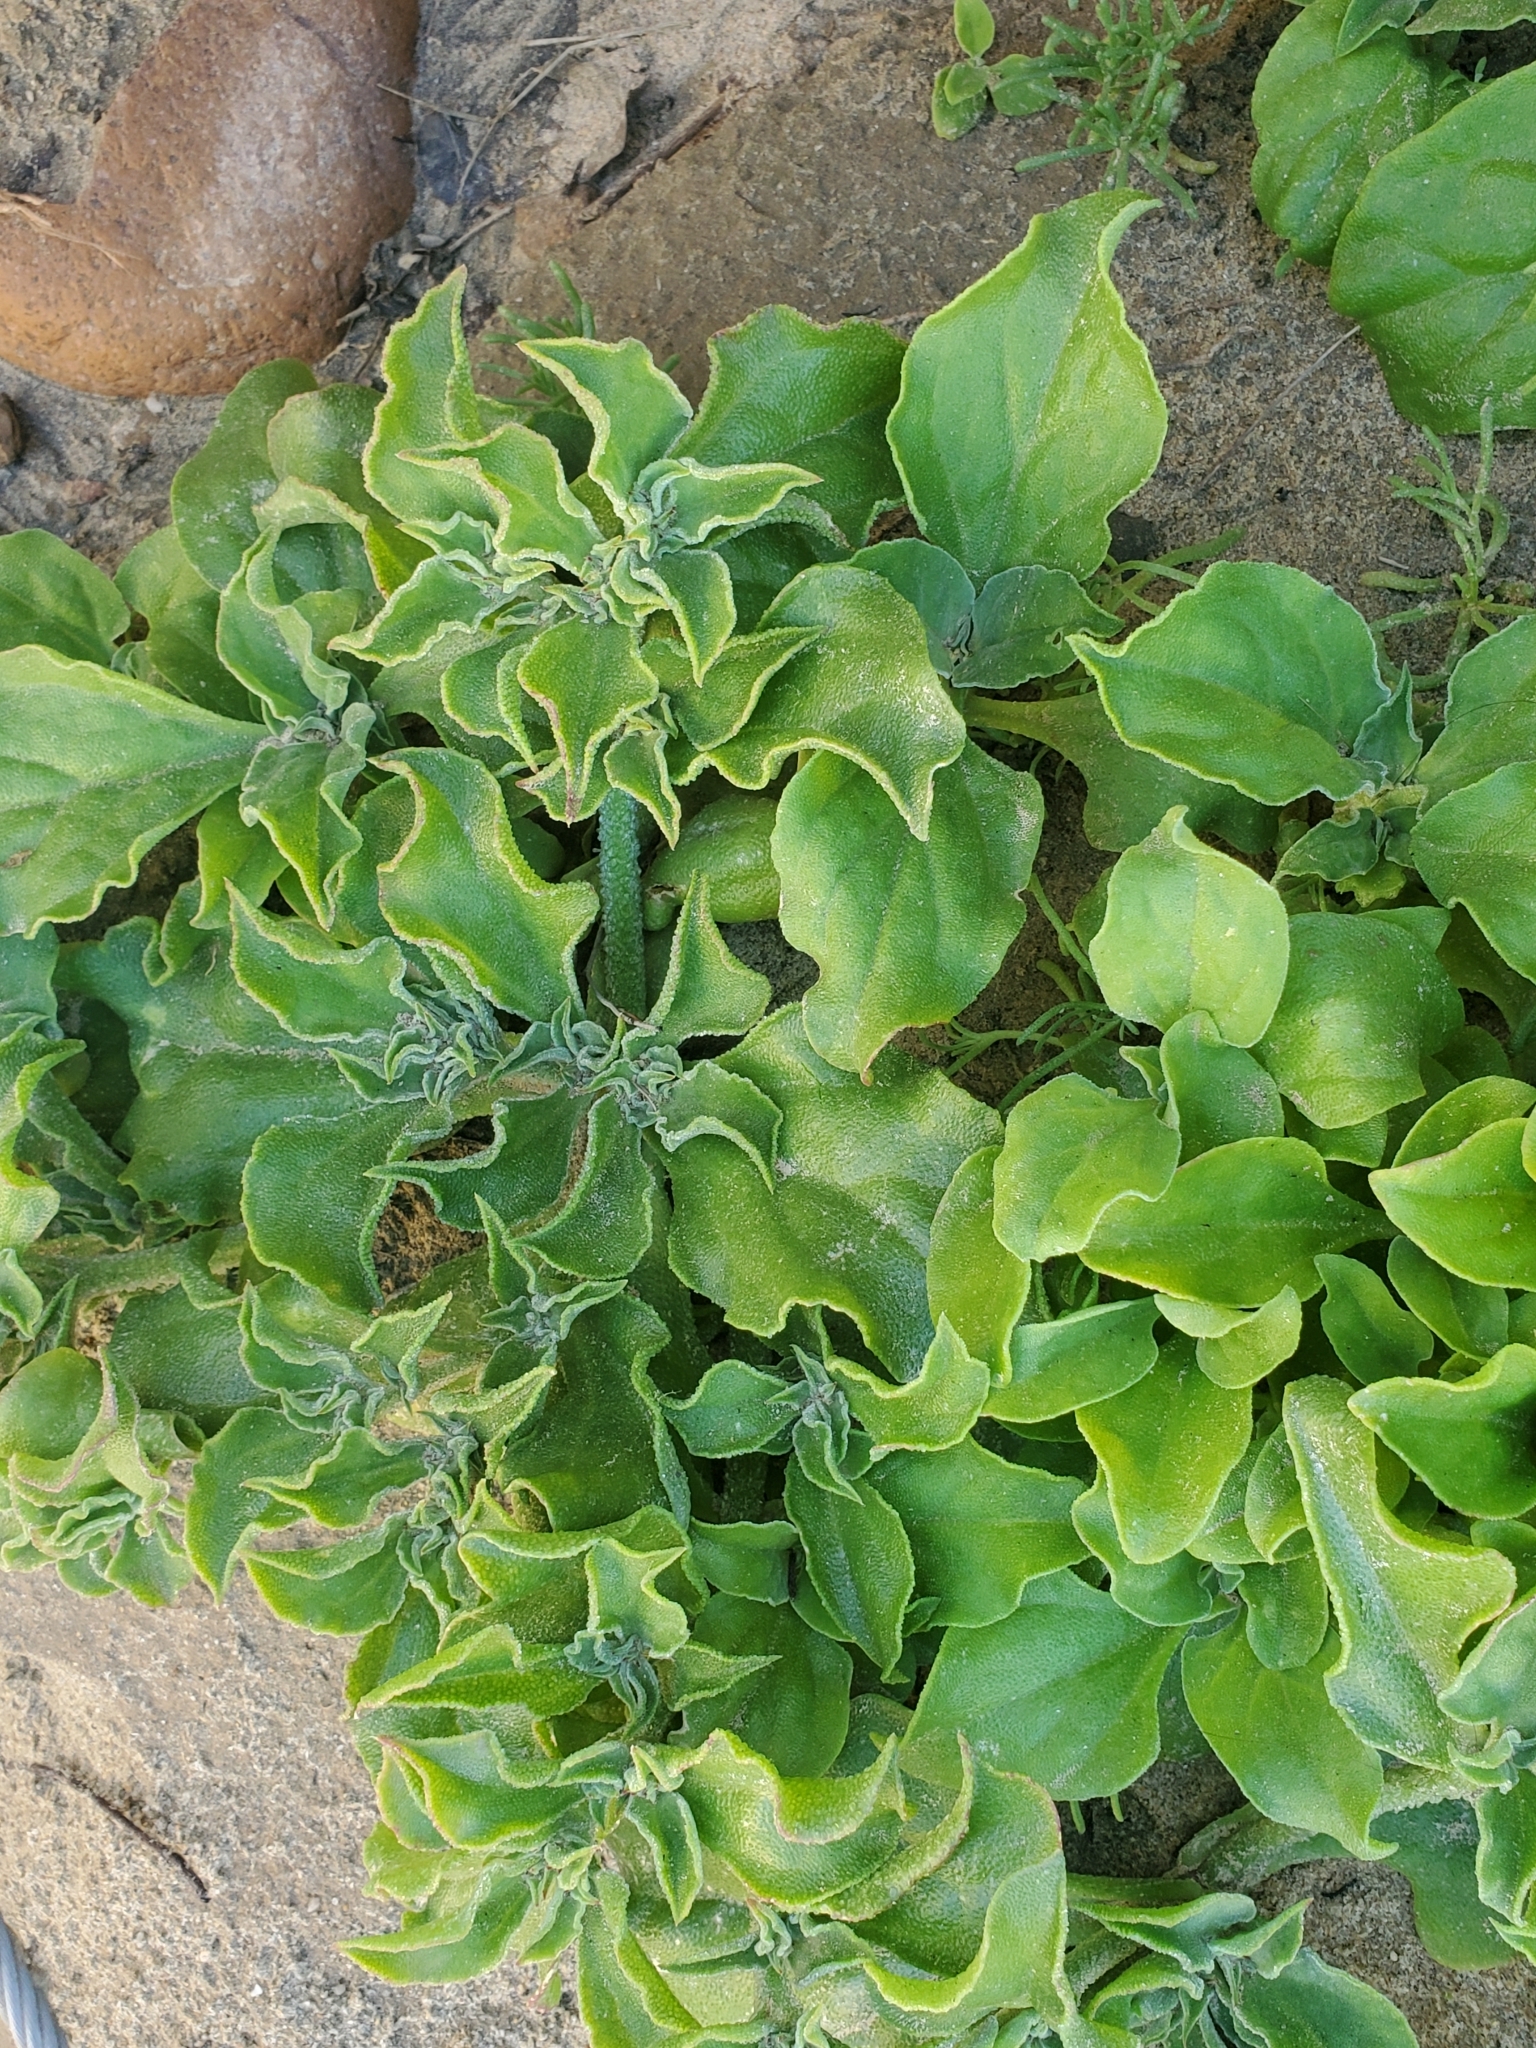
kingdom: Plantae
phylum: Tracheophyta
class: Magnoliopsida
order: Caryophyllales
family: Aizoaceae
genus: Mesembryanthemum
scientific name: Mesembryanthemum crystallinum
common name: Common iceplant
